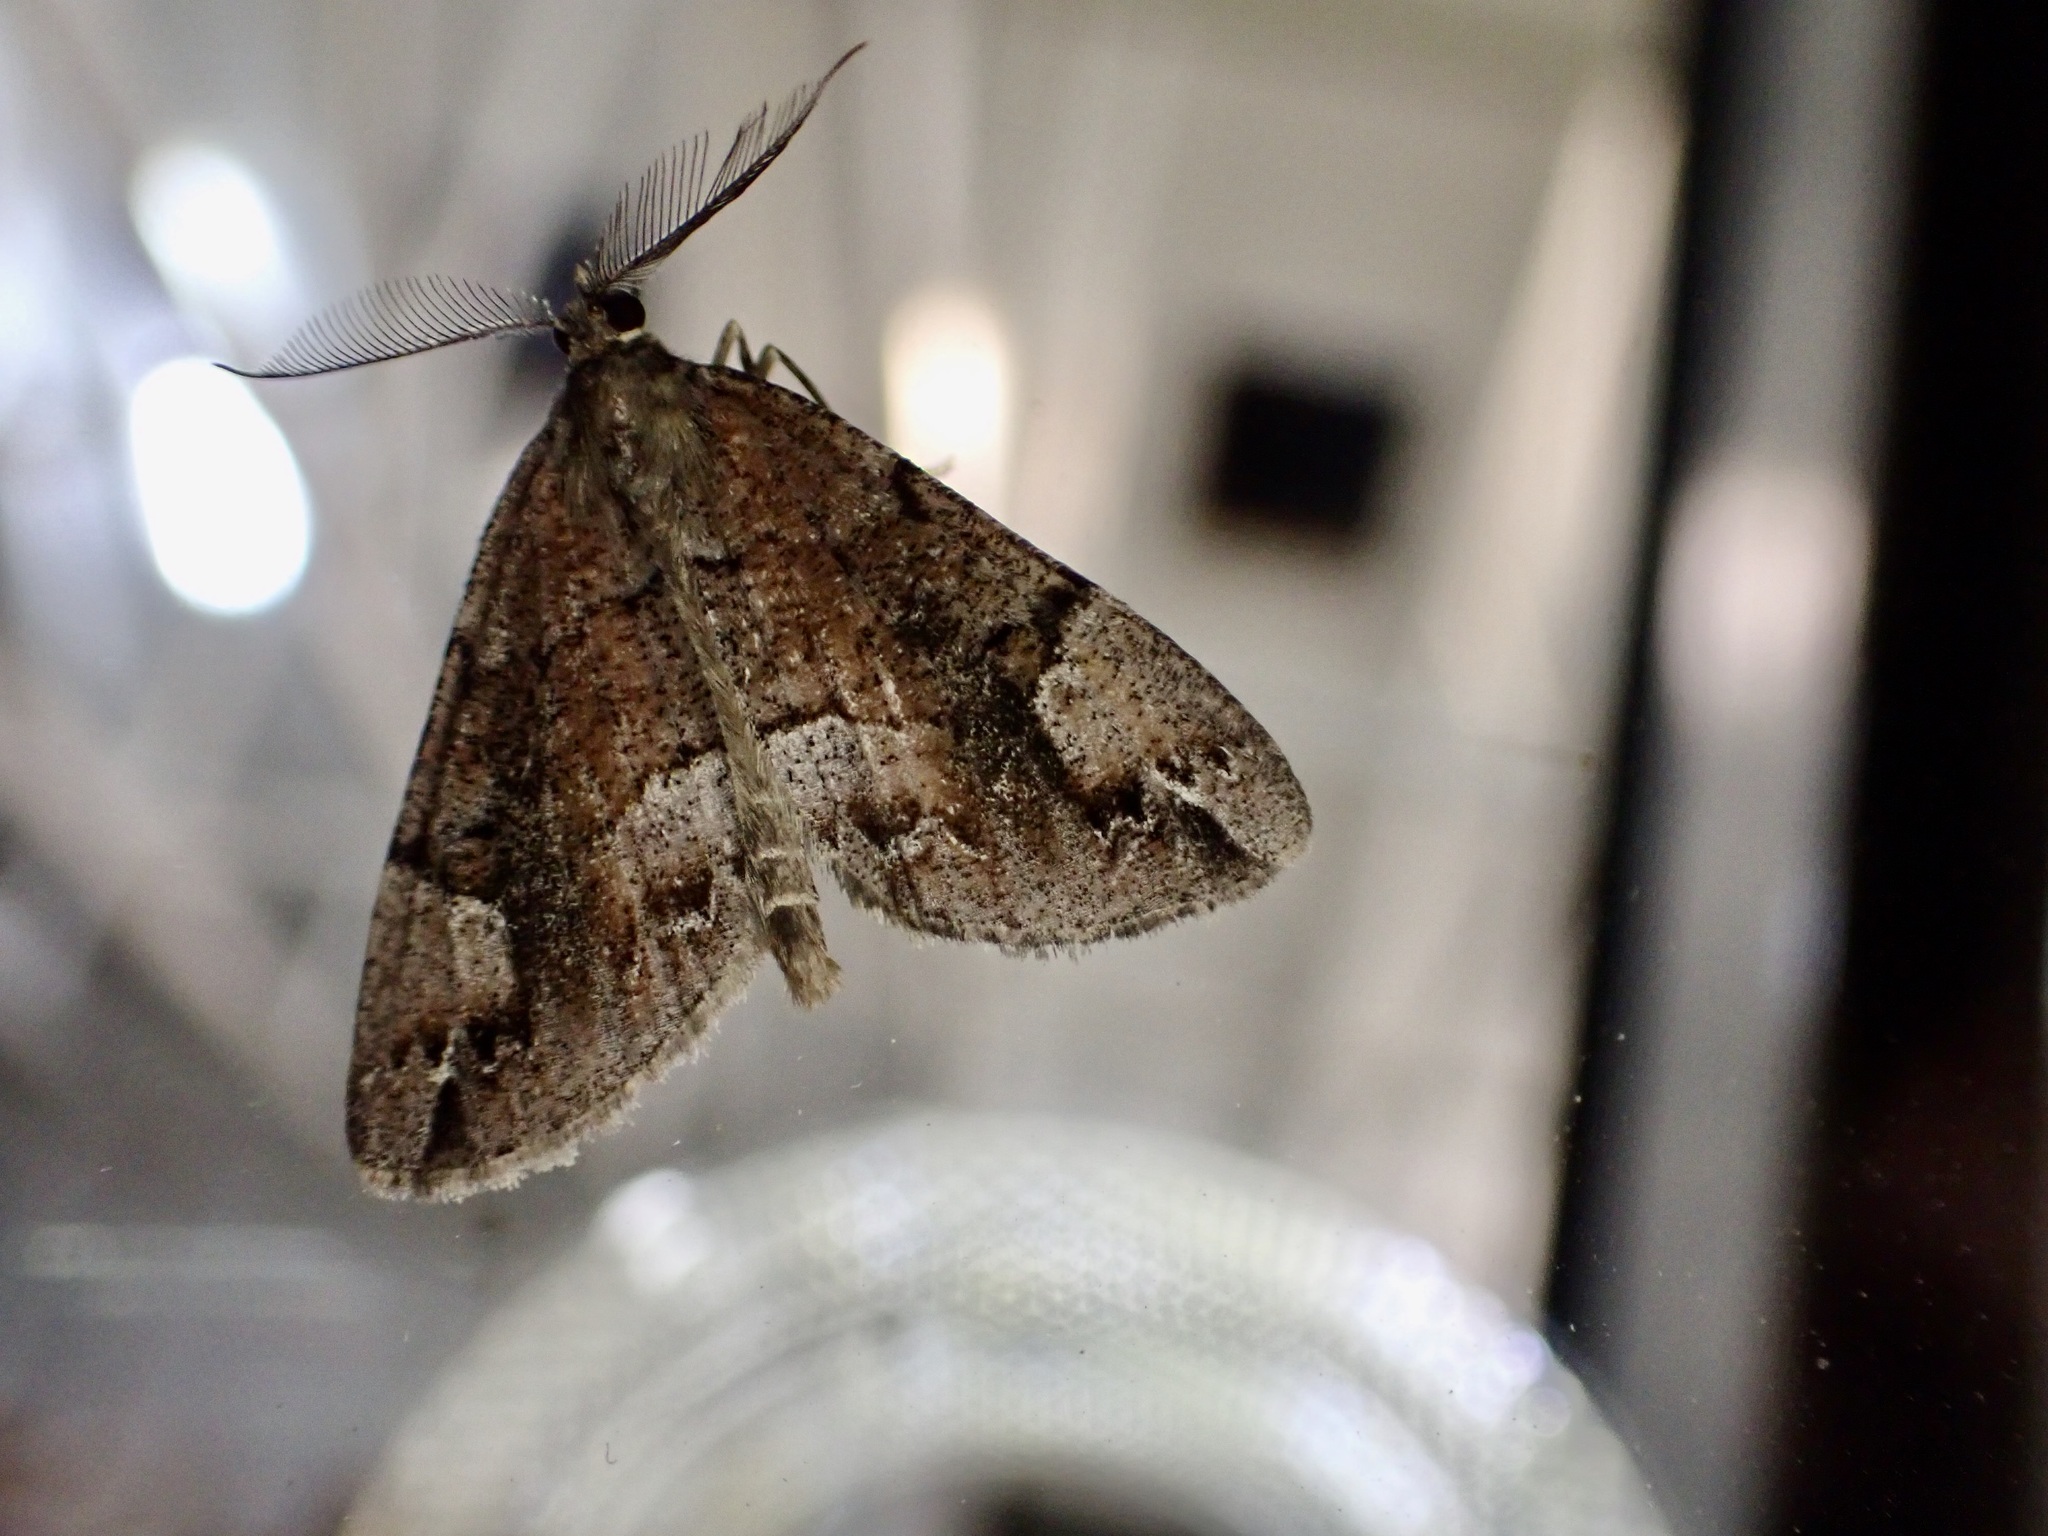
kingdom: Animalia
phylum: Arthropoda
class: Insecta
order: Lepidoptera
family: Geometridae
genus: Pseudocoremia
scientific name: Pseudocoremia productata
